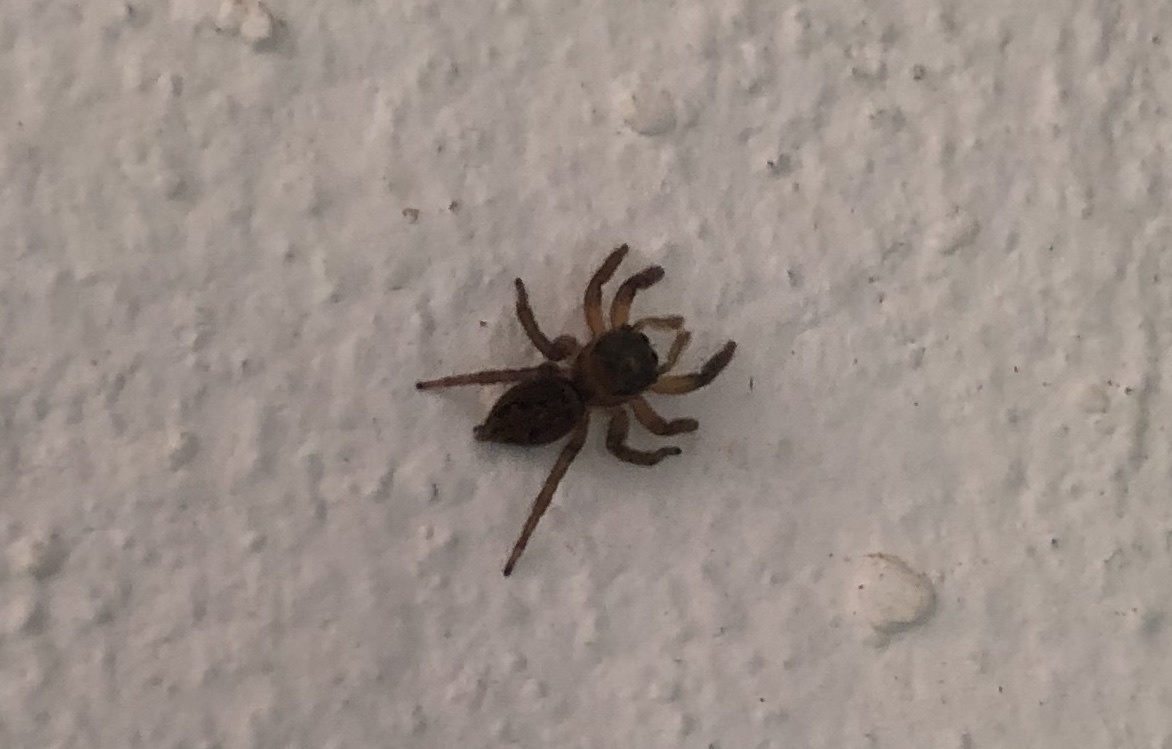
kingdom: Animalia
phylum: Arthropoda
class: Arachnida
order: Araneae
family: Salticidae
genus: Hasarius
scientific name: Hasarius adansoni
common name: Jumping spider
